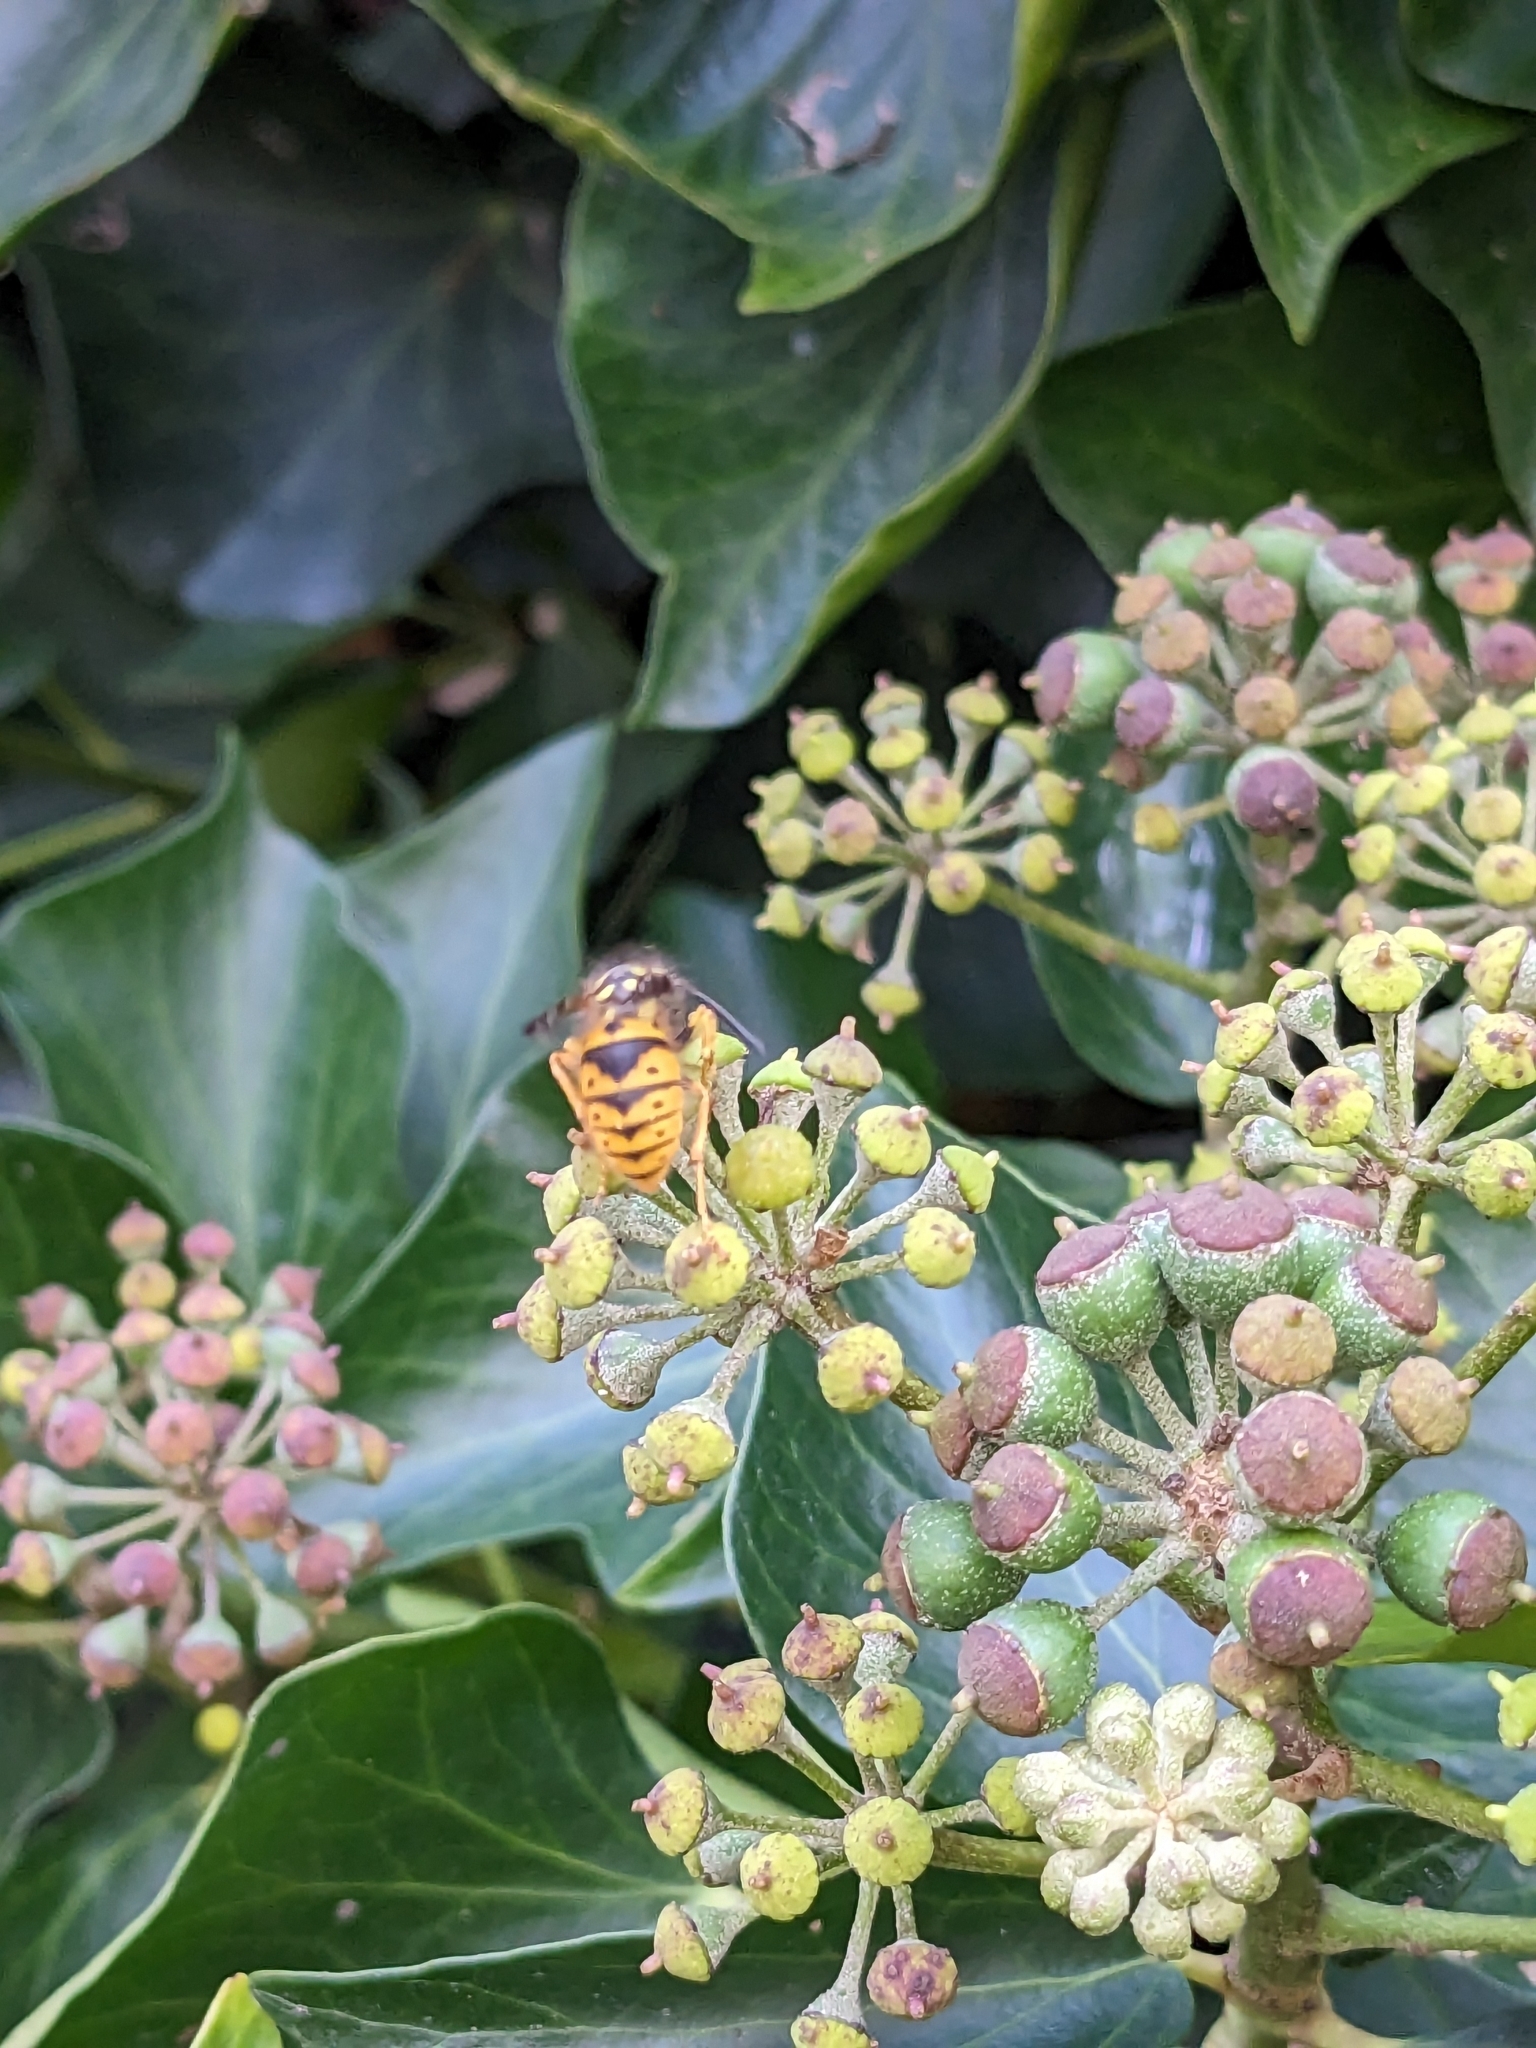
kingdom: Animalia
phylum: Arthropoda
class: Insecta
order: Hymenoptera
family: Vespidae
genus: Vespula
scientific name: Vespula germanica
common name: German wasp
